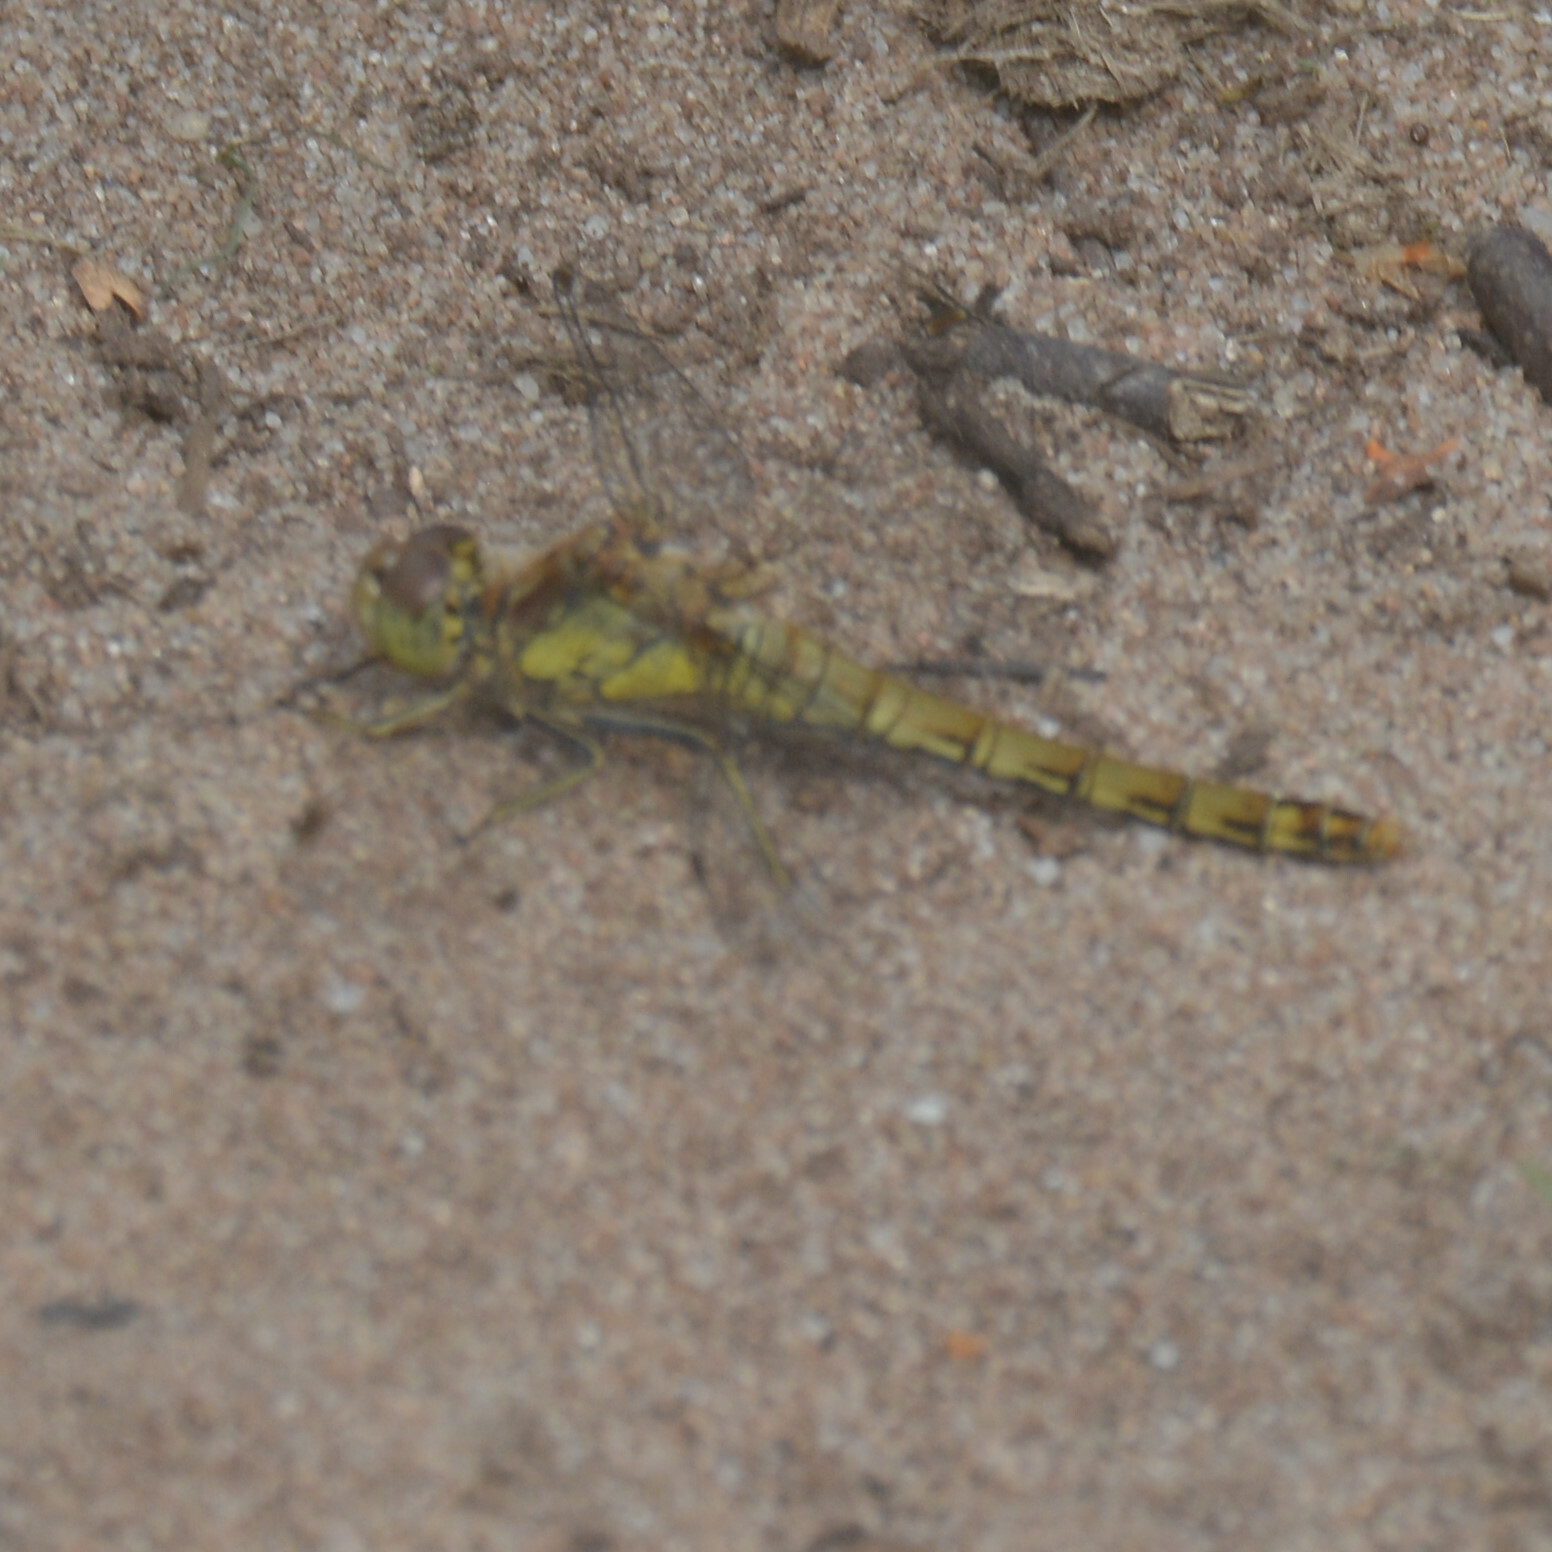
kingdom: Animalia
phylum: Arthropoda
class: Insecta
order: Odonata
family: Libellulidae
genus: Sympetrum
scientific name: Sympetrum striolatum
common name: Common darter
